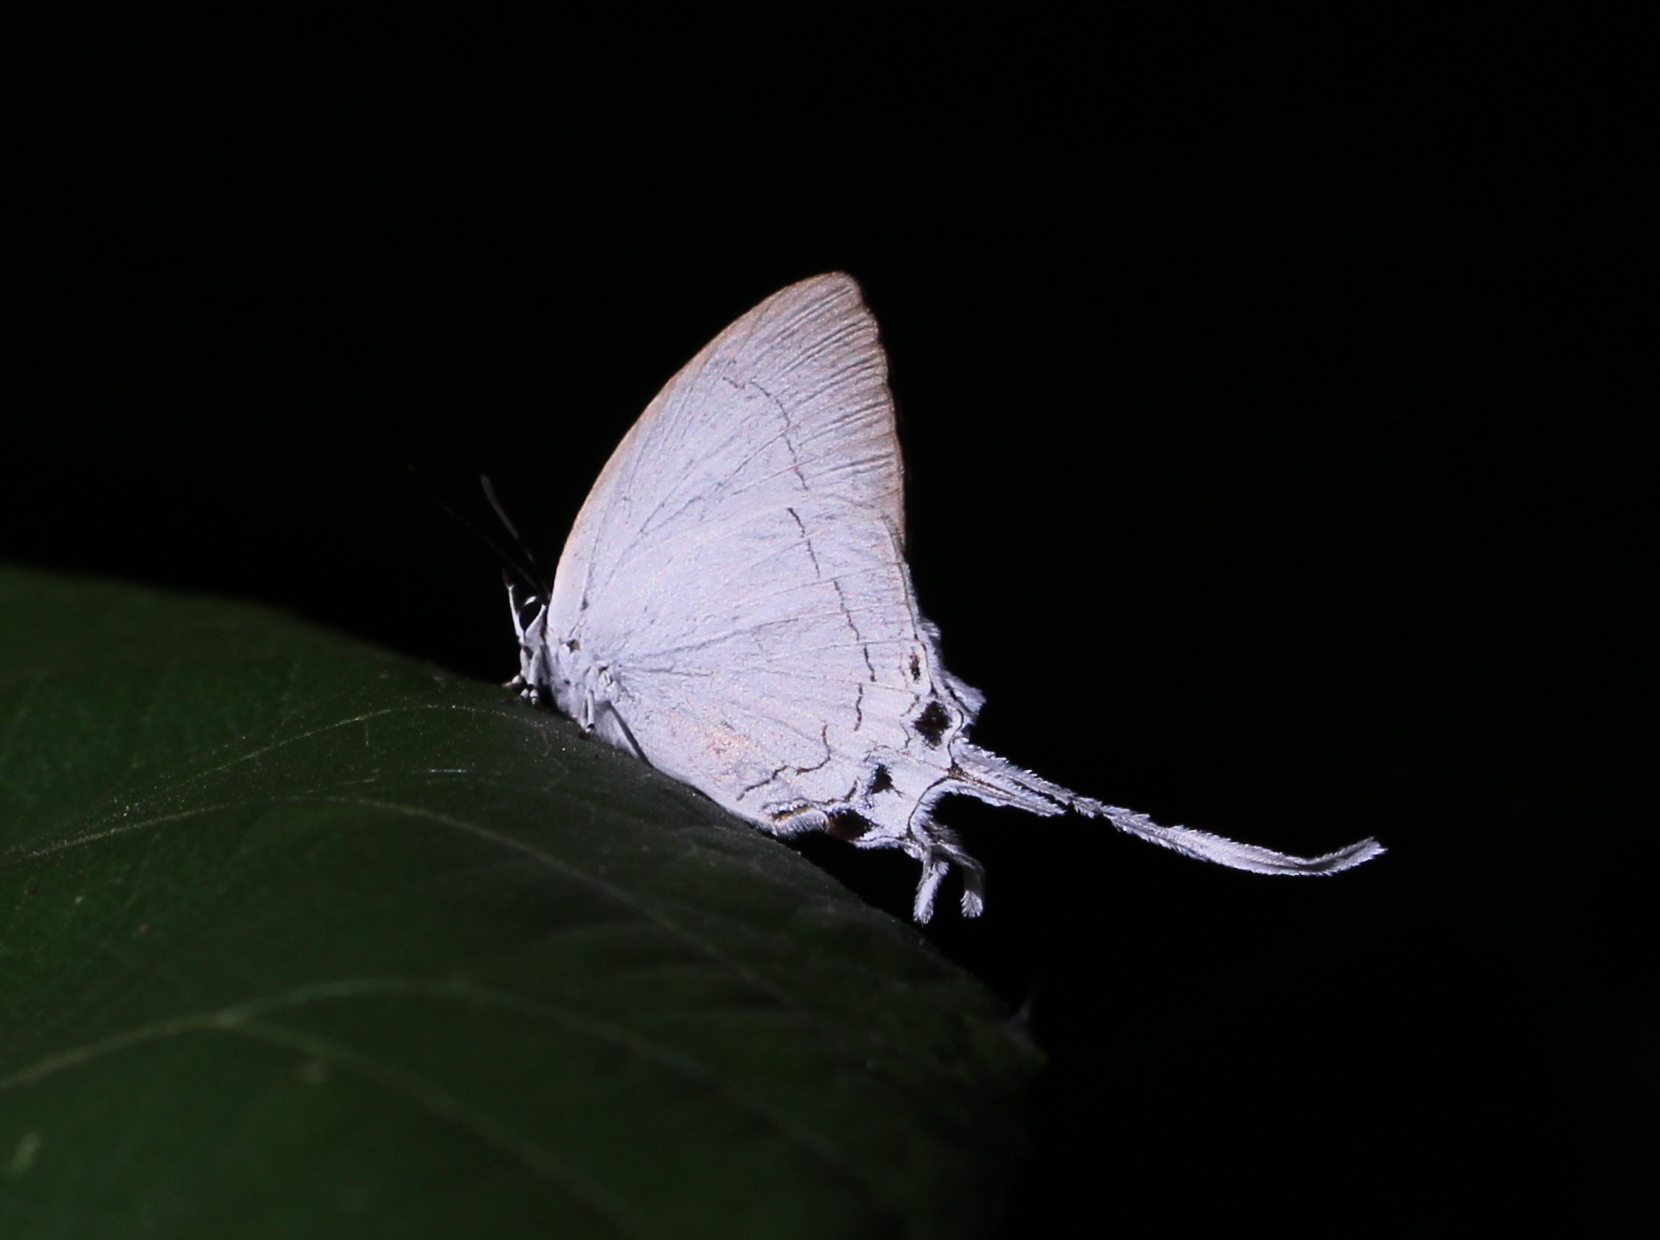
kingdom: Animalia
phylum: Arthropoda
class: Insecta
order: Lepidoptera
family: Lycaenidae
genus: Cheritra
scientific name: Cheritra freja
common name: Common imperial
